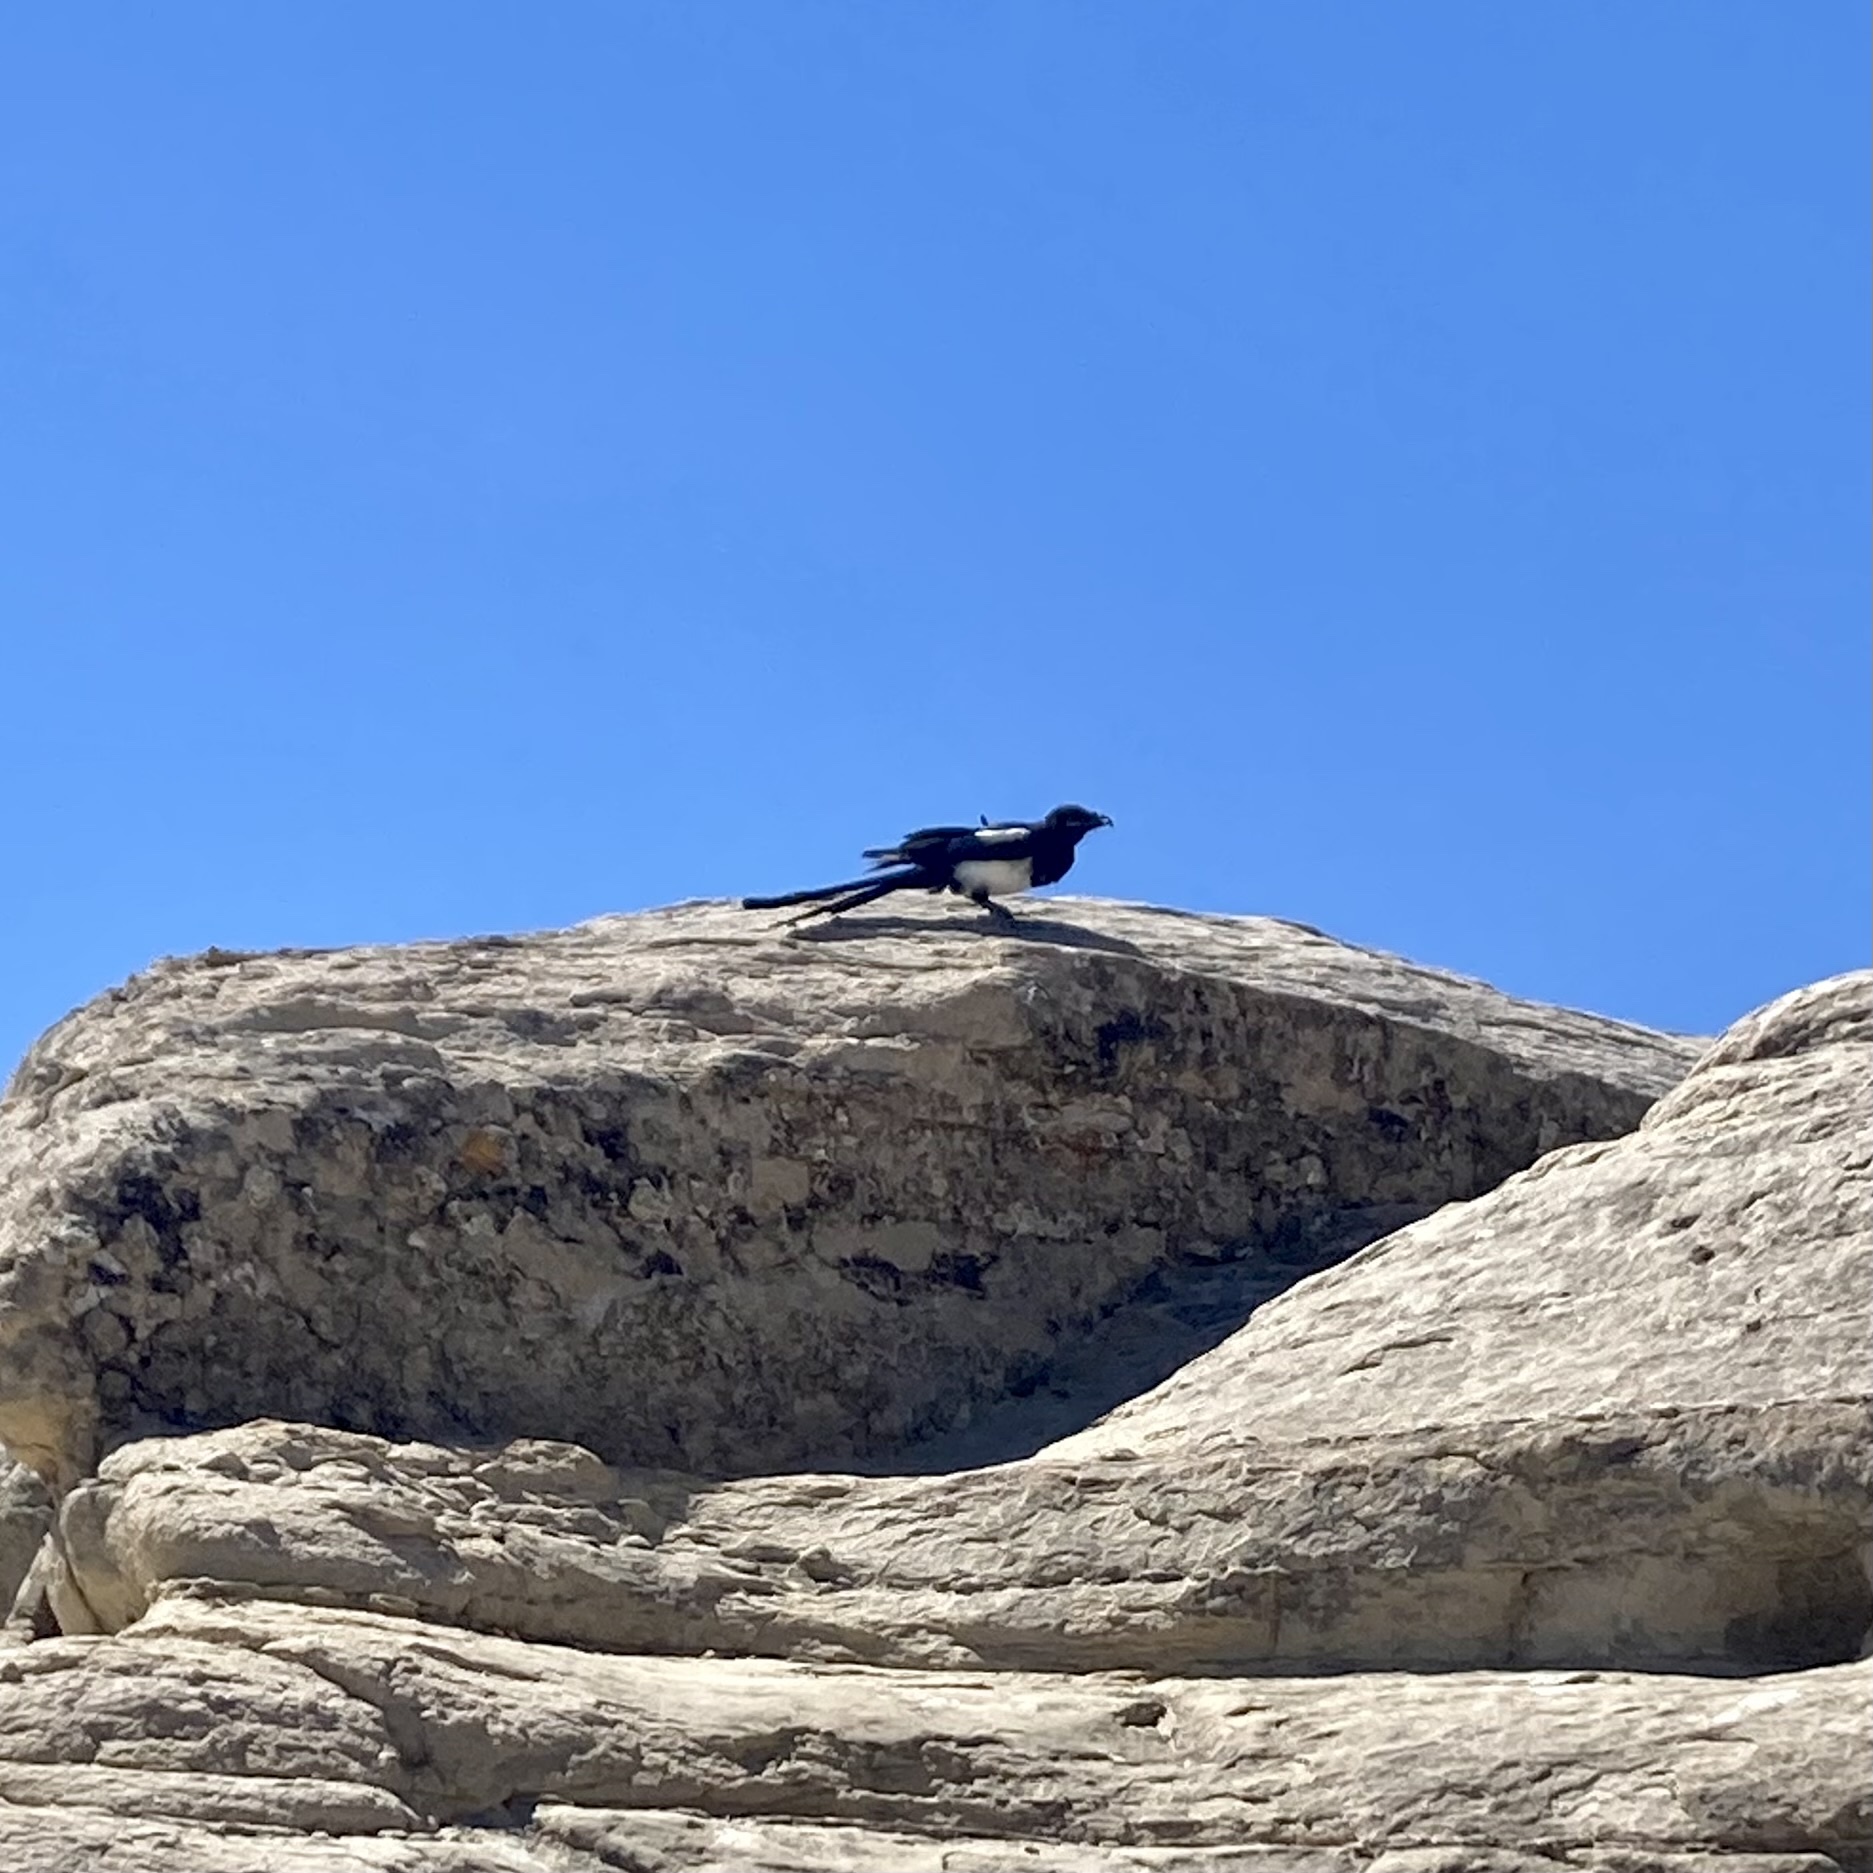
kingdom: Animalia
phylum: Chordata
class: Aves
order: Passeriformes
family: Corvidae
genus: Pica
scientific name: Pica hudsonia
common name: Black-billed magpie
